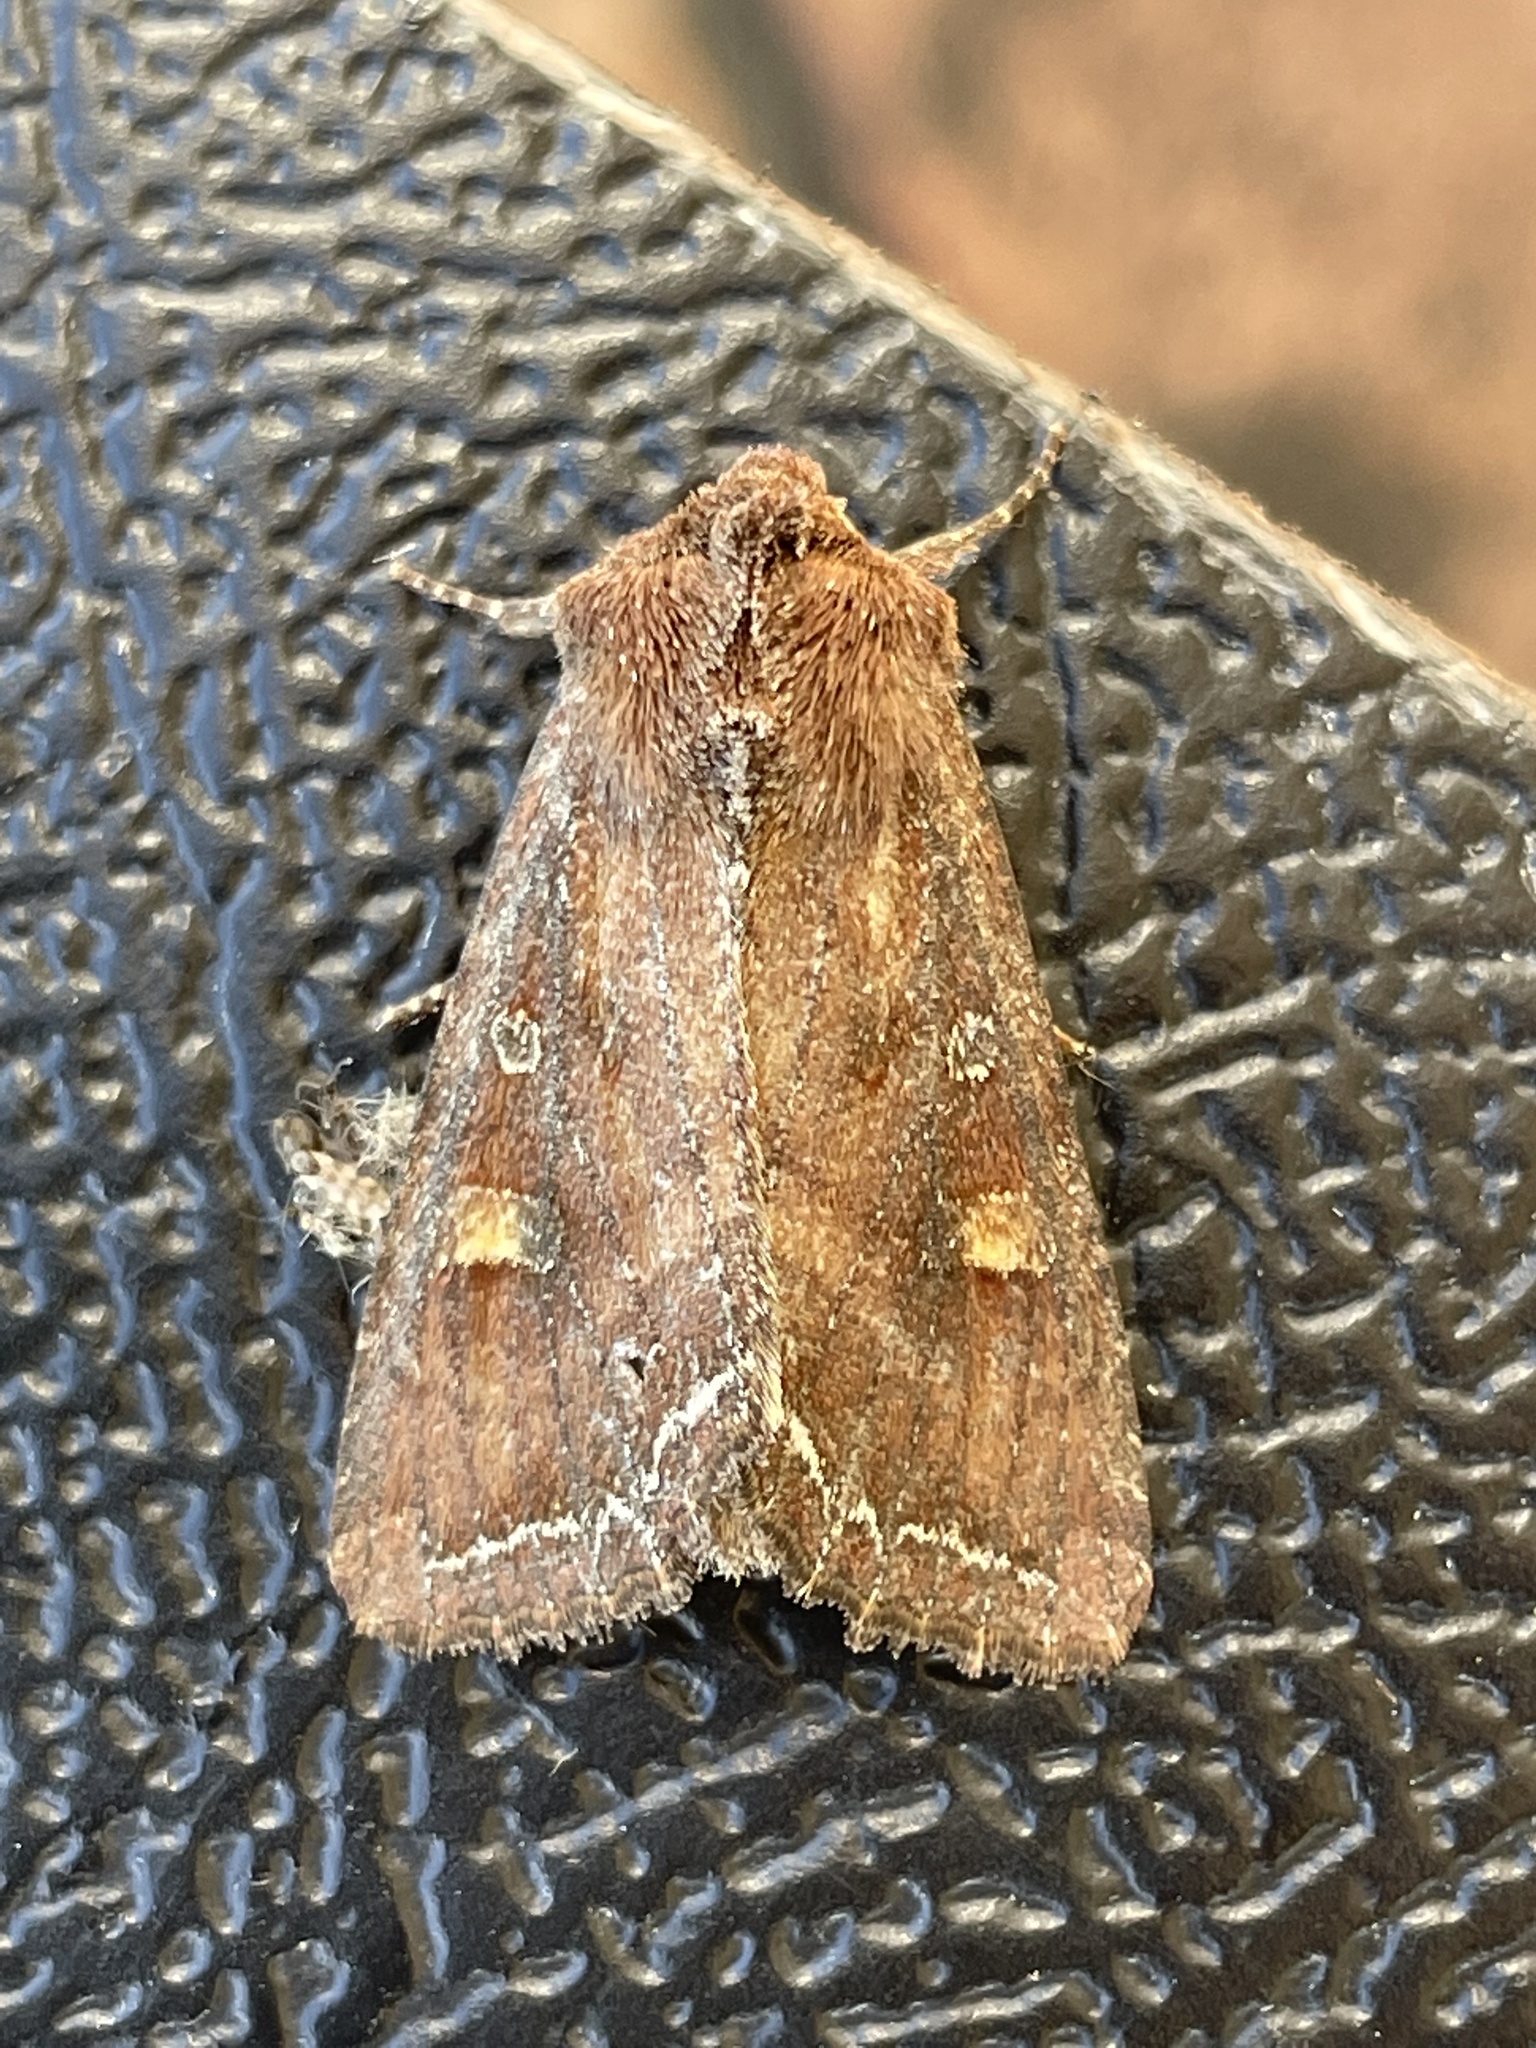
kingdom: Animalia
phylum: Arthropoda
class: Insecta
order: Lepidoptera
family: Noctuidae
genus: Lacanobia
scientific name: Lacanobia oleracea
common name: Bright-line brown-eye
